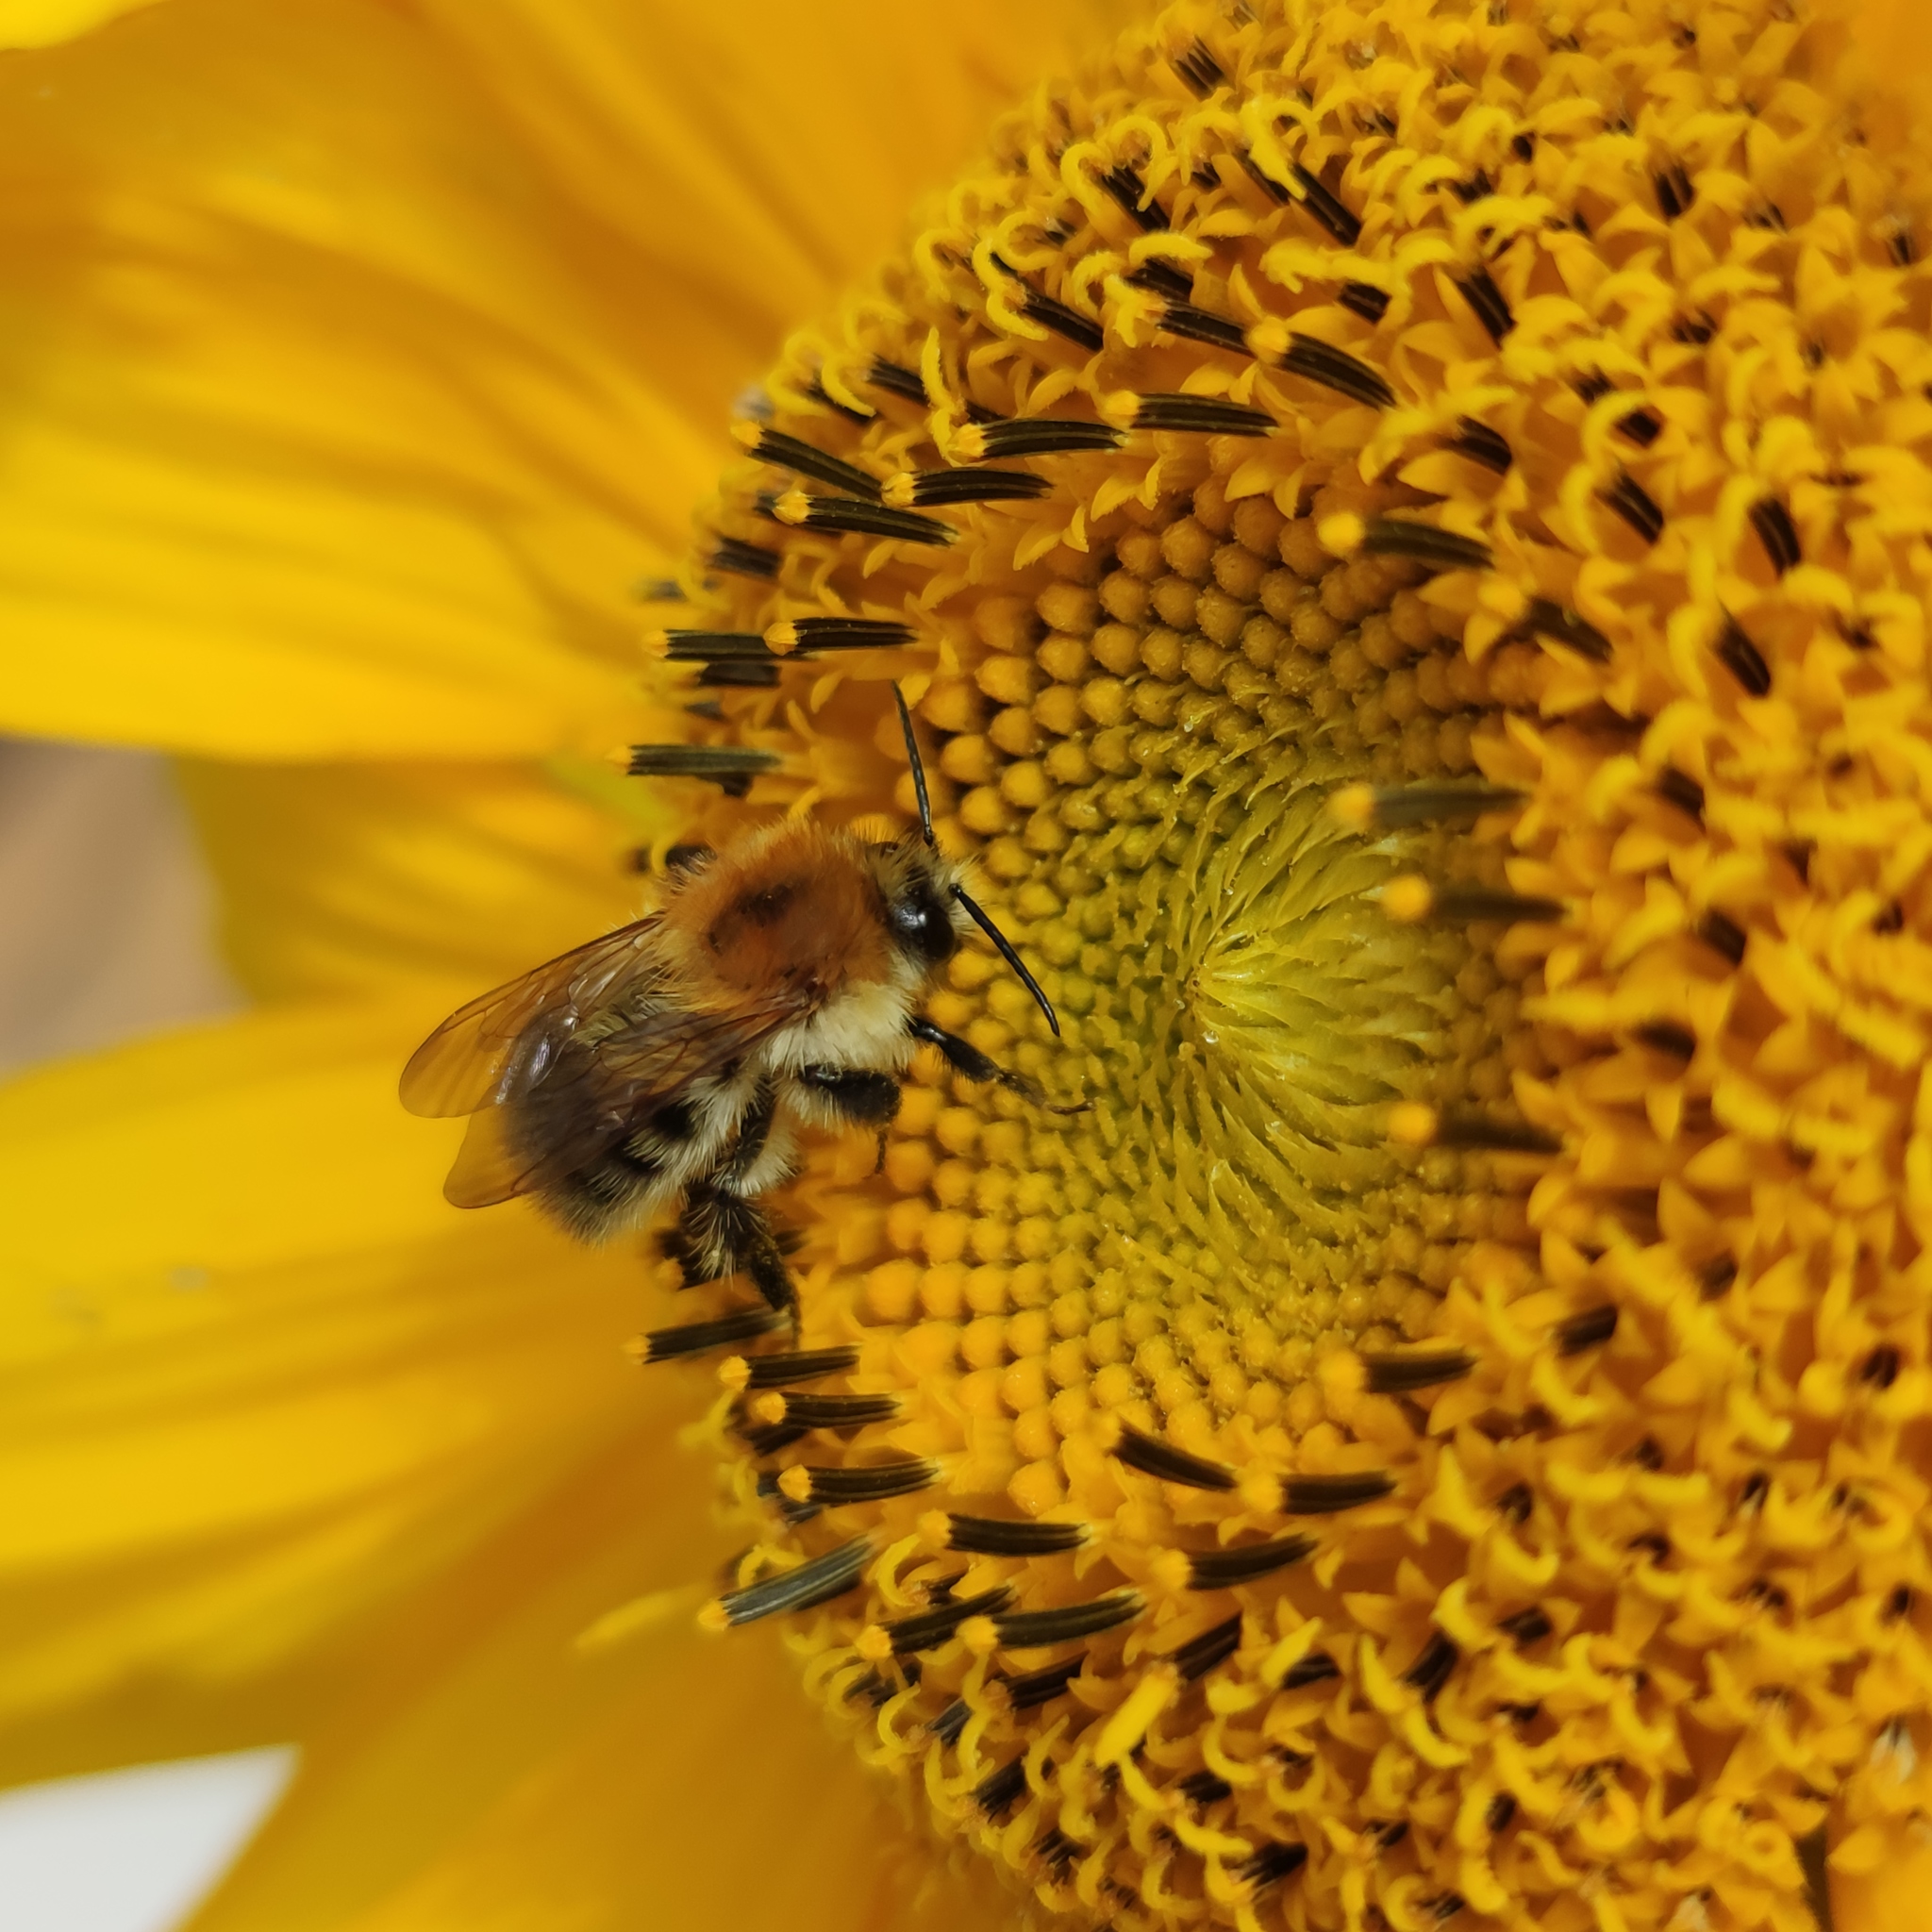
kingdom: Animalia
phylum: Arthropoda
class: Insecta
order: Hymenoptera
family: Apidae
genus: Bombus
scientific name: Bombus pascuorum
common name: Common carder bee
